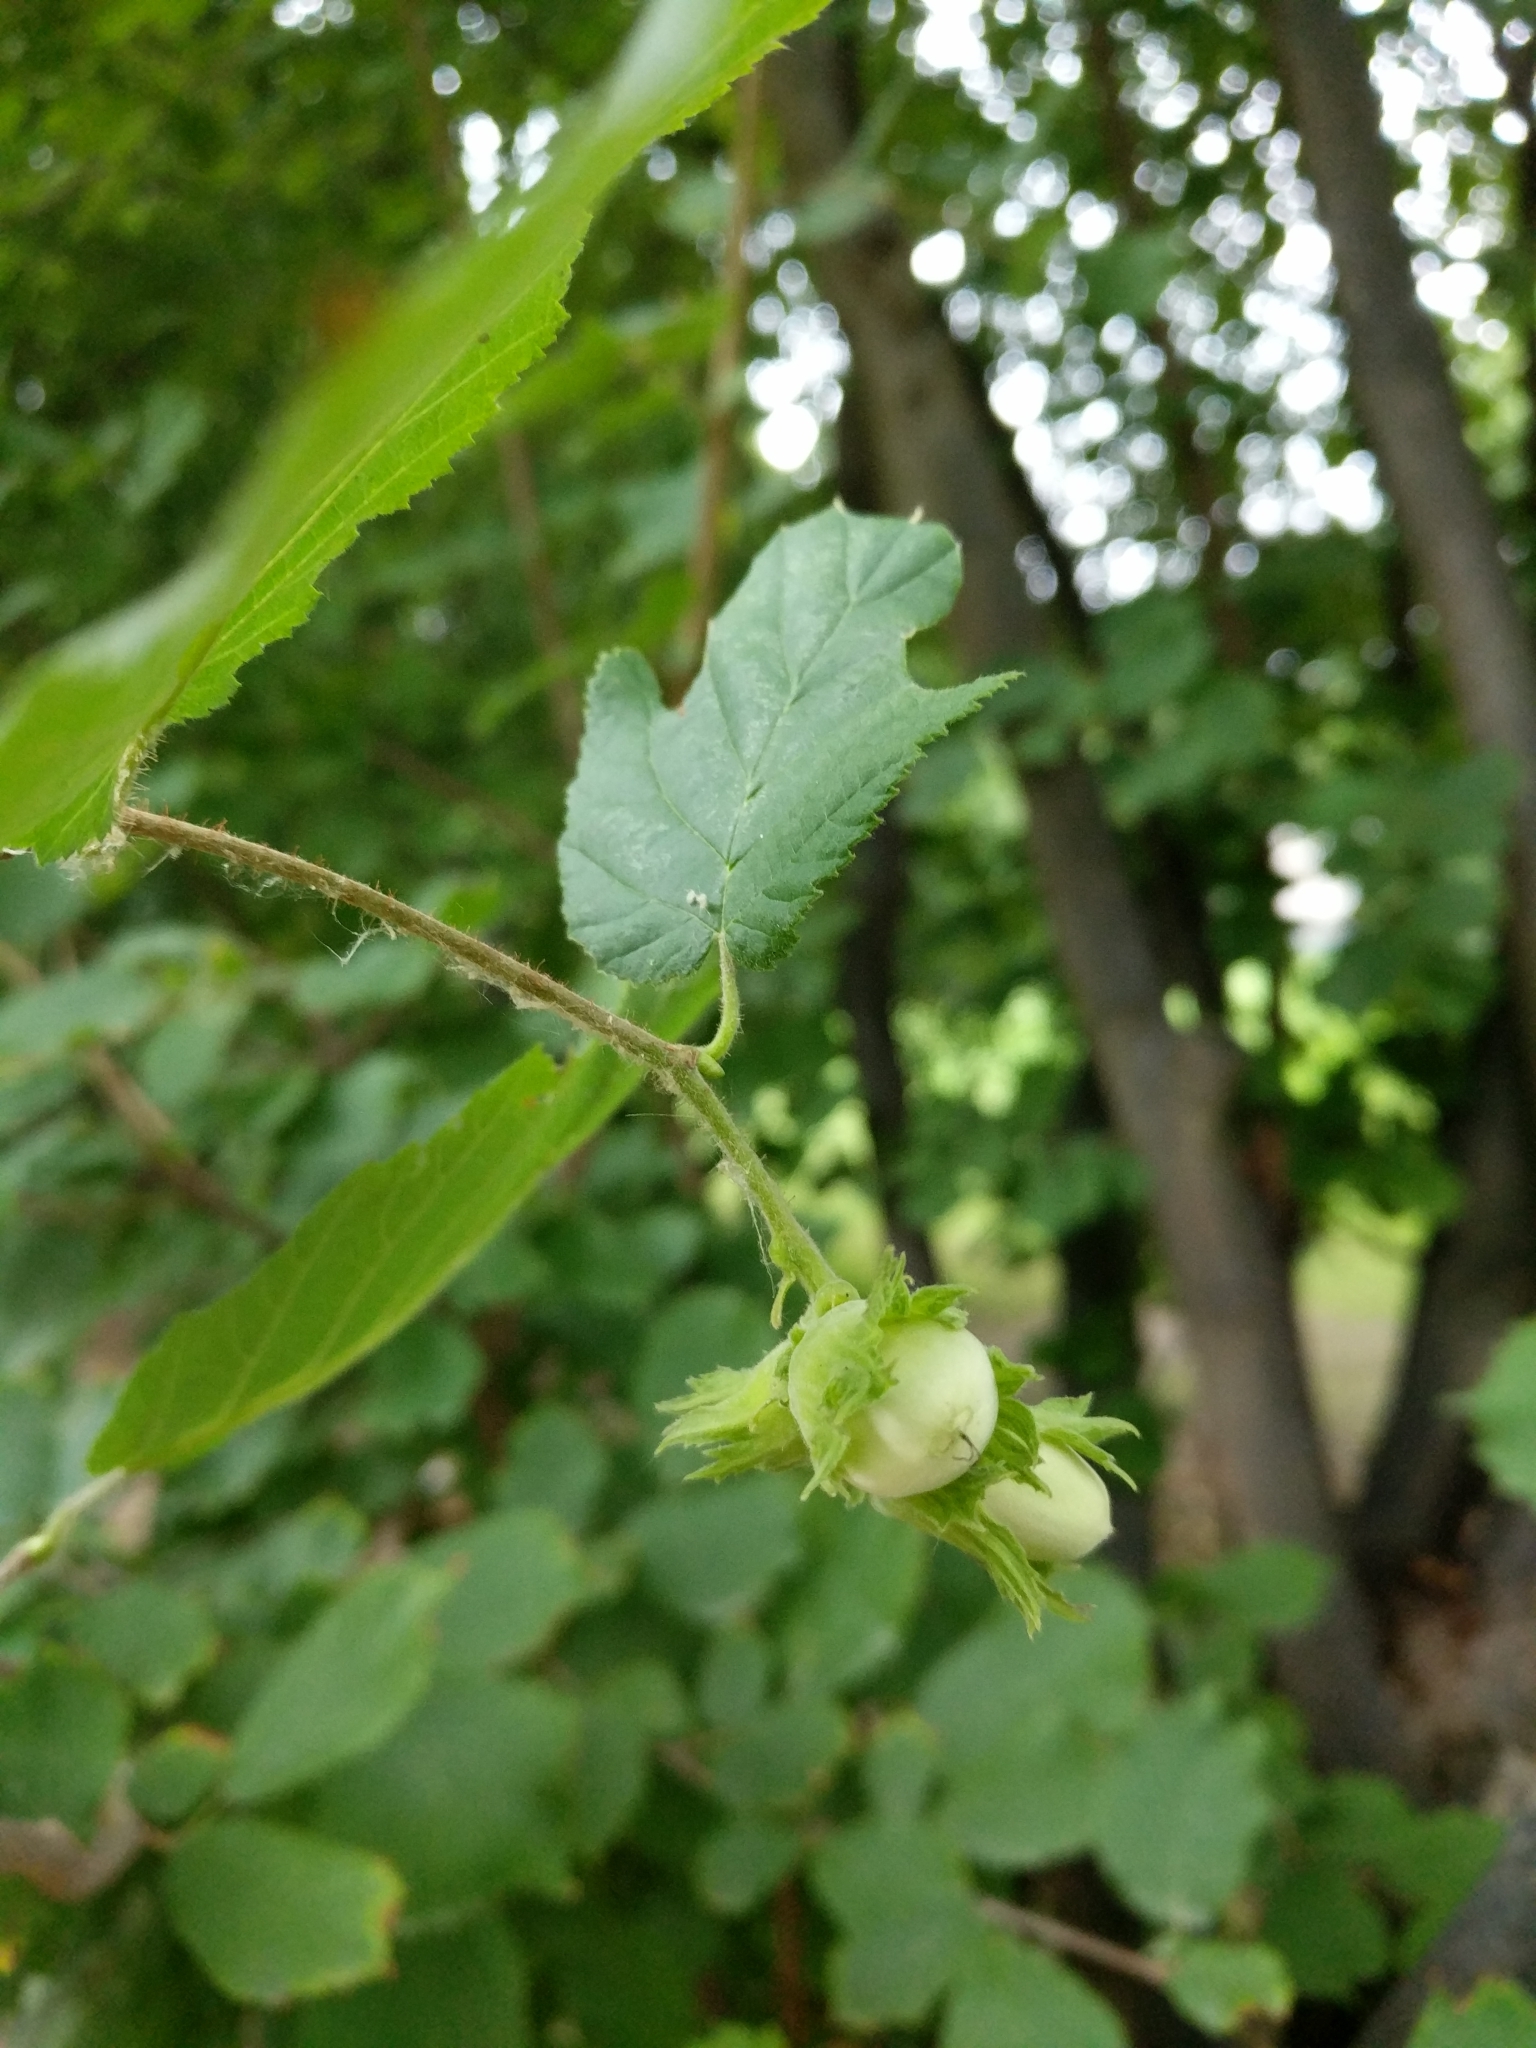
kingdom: Plantae
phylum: Tracheophyta
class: Magnoliopsida
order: Fagales
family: Betulaceae
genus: Corylus
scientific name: Corylus avellana
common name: European hazel
